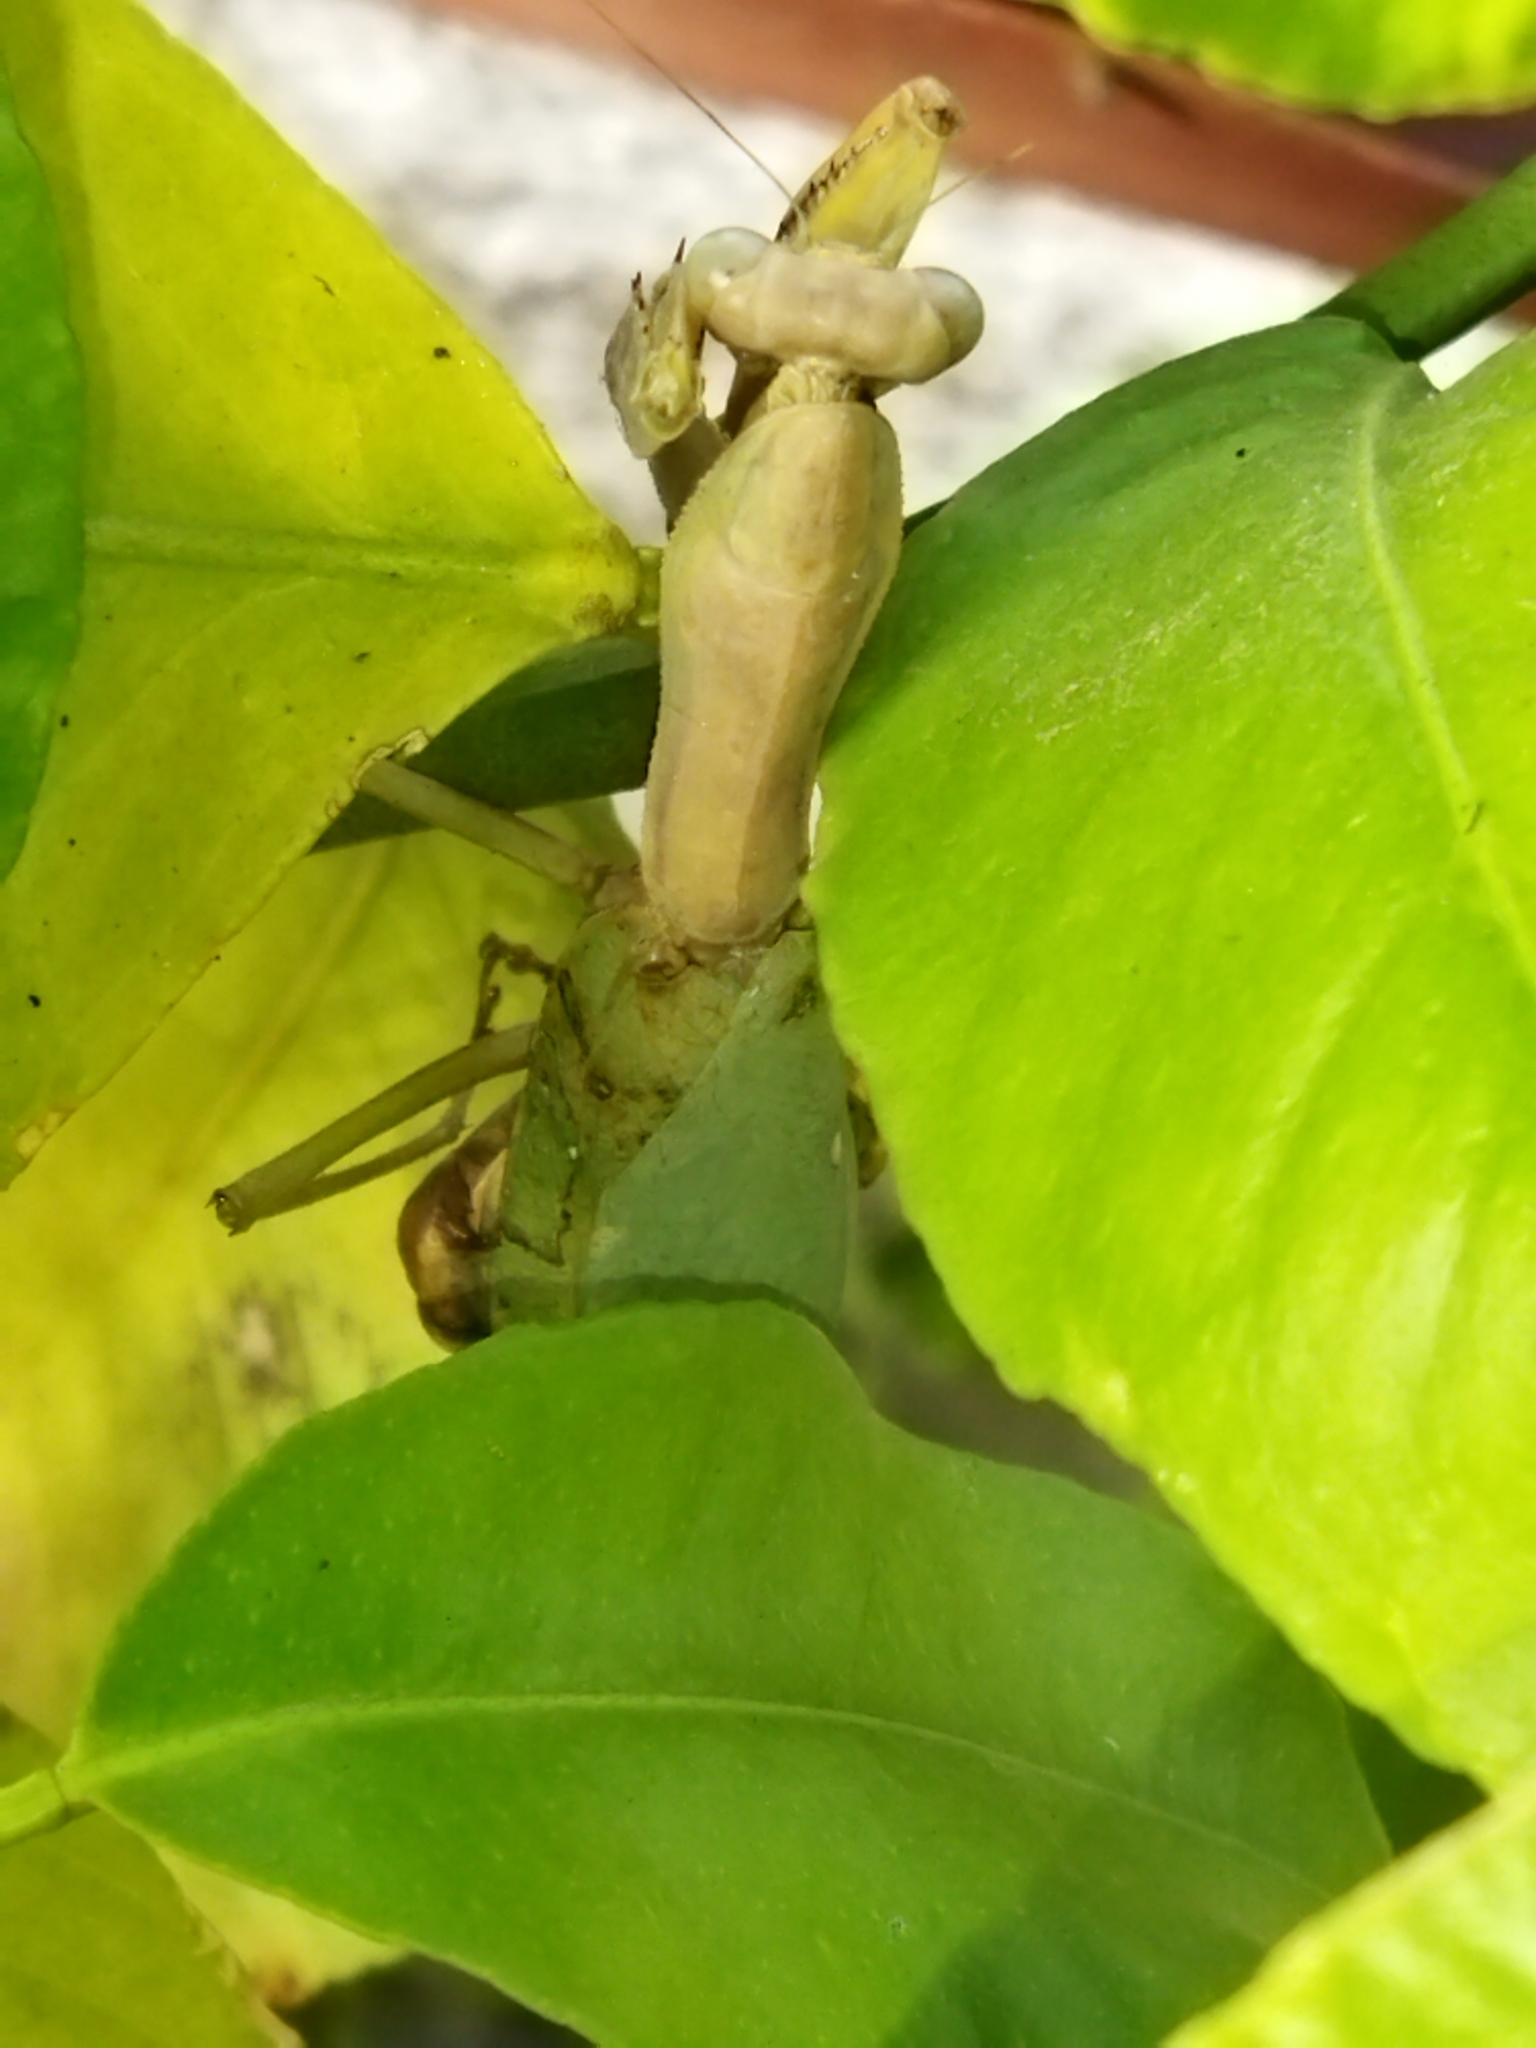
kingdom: Animalia
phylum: Arthropoda
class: Insecta
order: Mantodea
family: Mantidae
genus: Hierodula
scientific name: Hierodula transcaucasica
